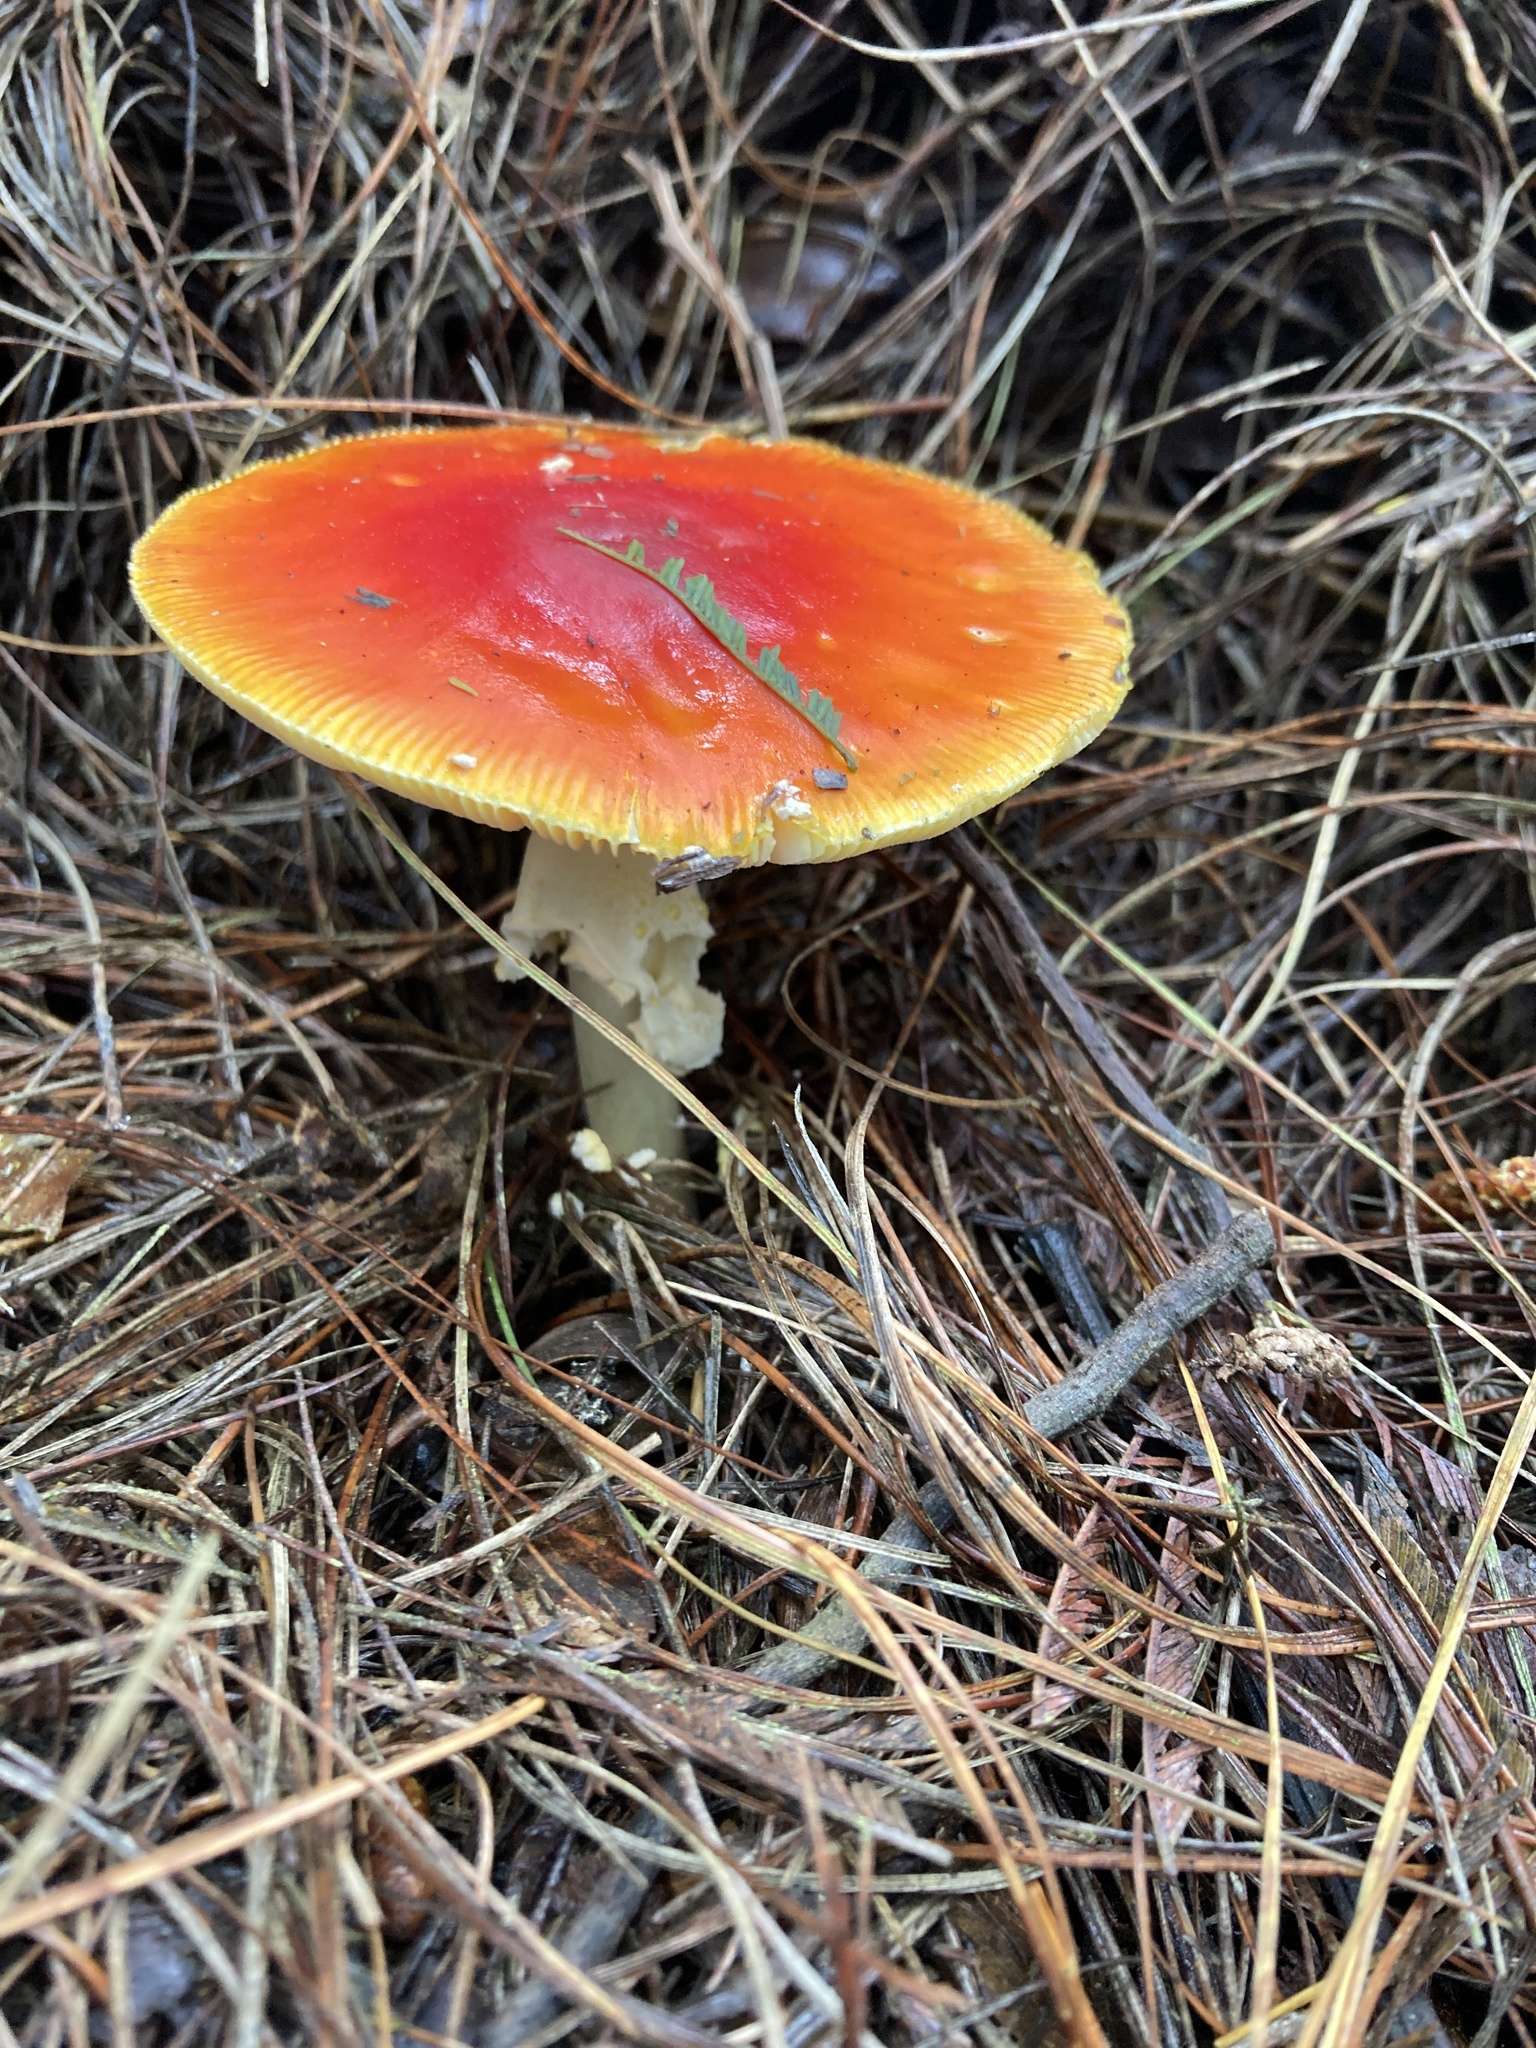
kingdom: Fungi
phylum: Basidiomycota
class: Agaricomycetes
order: Agaricales
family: Amanitaceae
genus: Amanita
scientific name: Amanita muscaria
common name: Fly agaric
